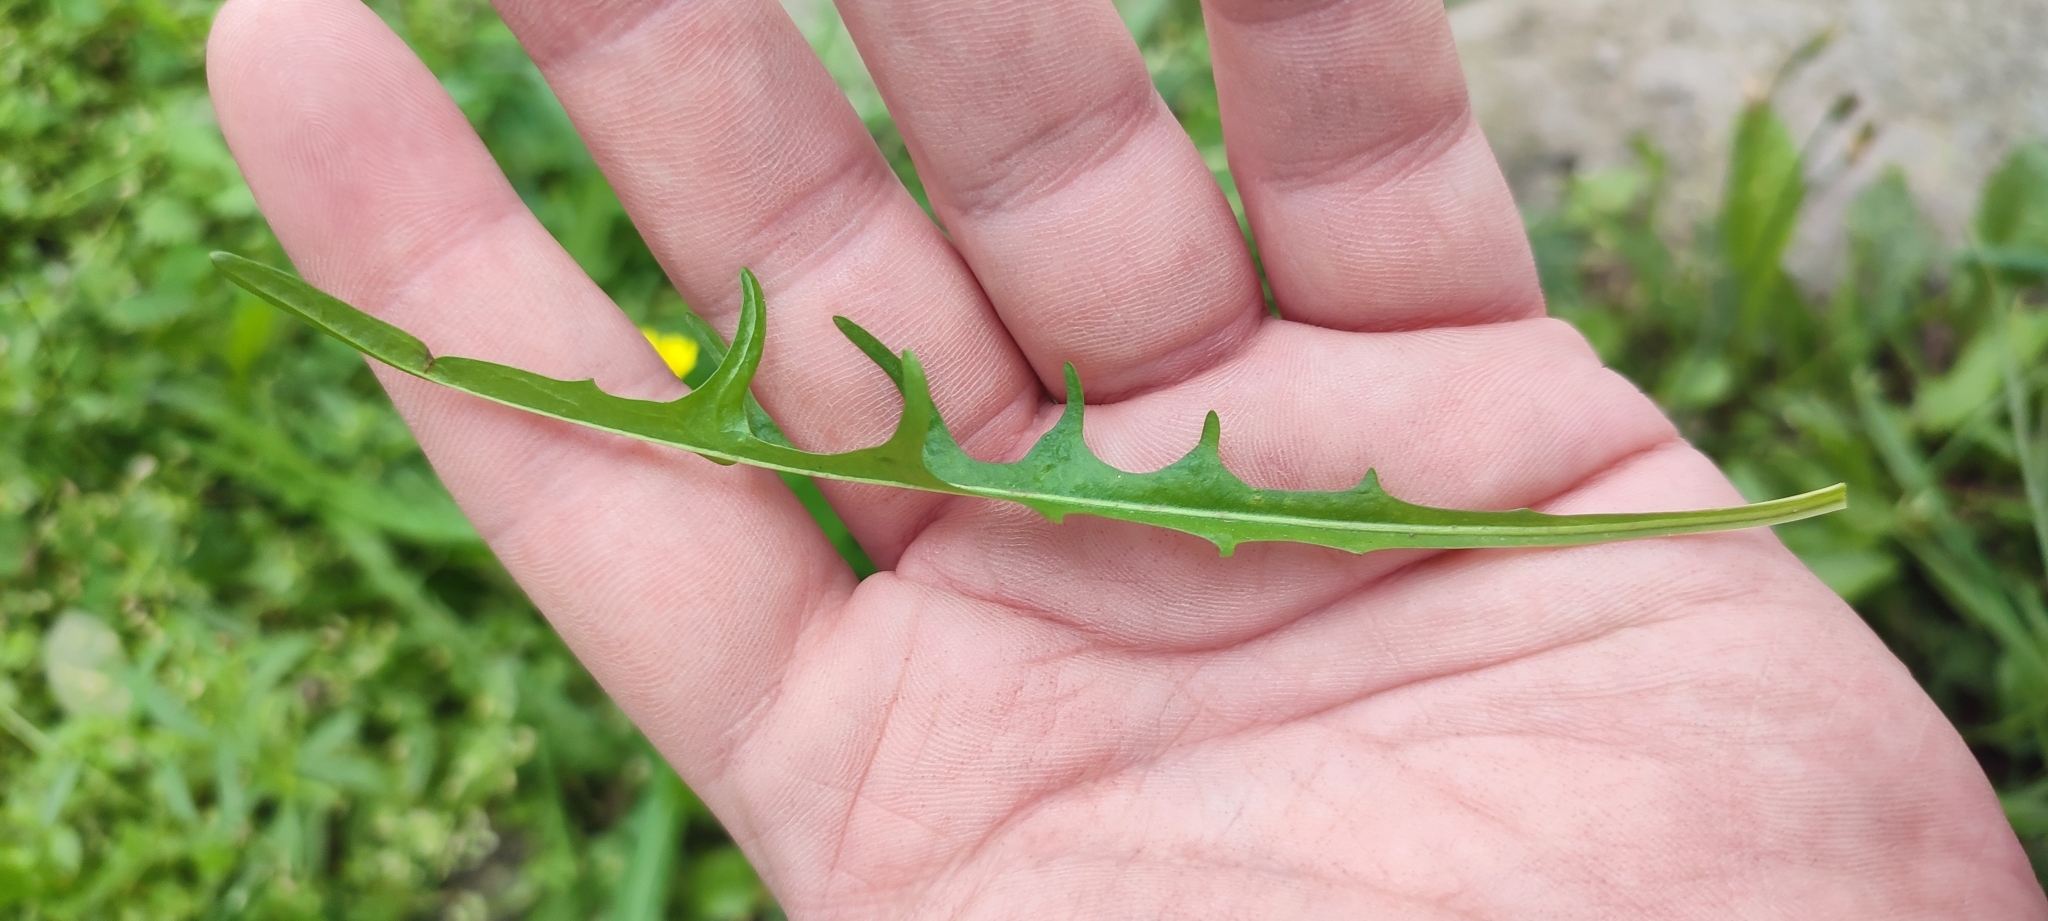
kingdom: Plantae
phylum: Tracheophyta
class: Magnoliopsida
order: Asterales
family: Asteraceae
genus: Crepis
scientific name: Crepis tectorum
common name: Narrow-leaved hawk's-beard
